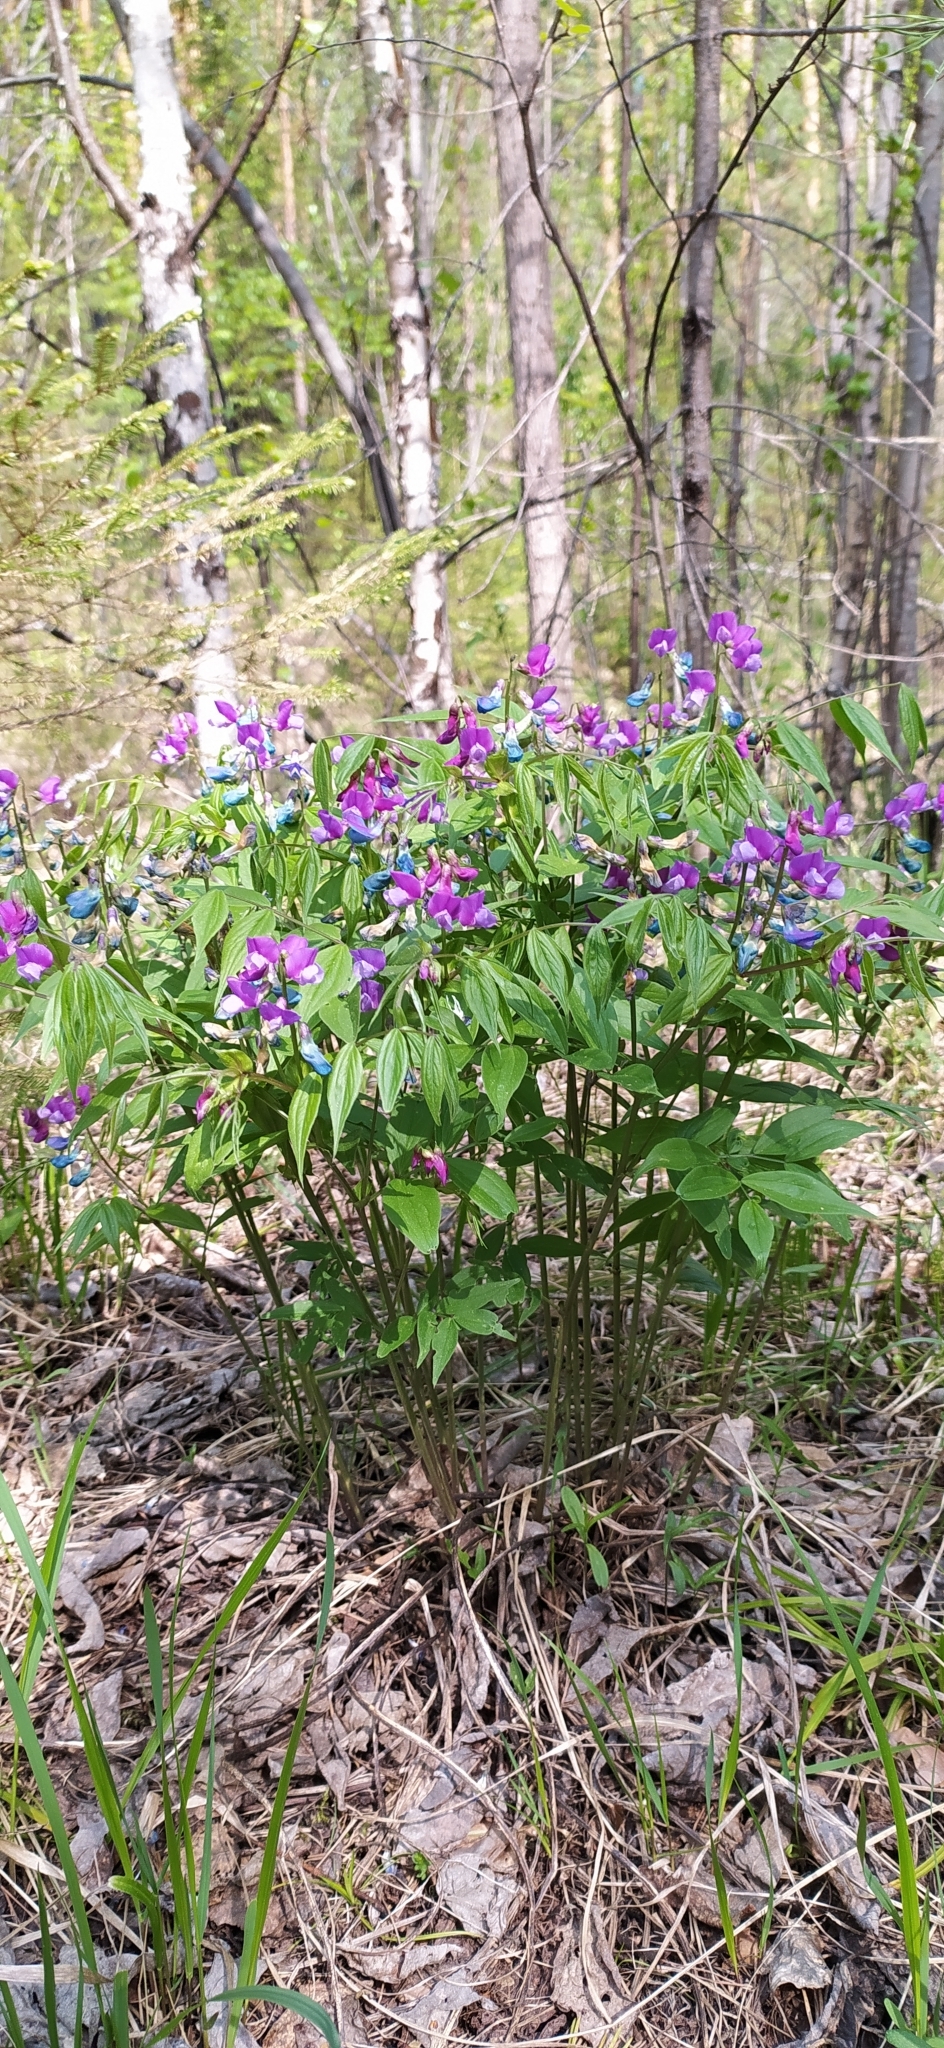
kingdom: Plantae
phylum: Tracheophyta
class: Magnoliopsida
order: Fabales
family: Fabaceae
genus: Lathyrus
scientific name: Lathyrus vernus
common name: Spring pea
